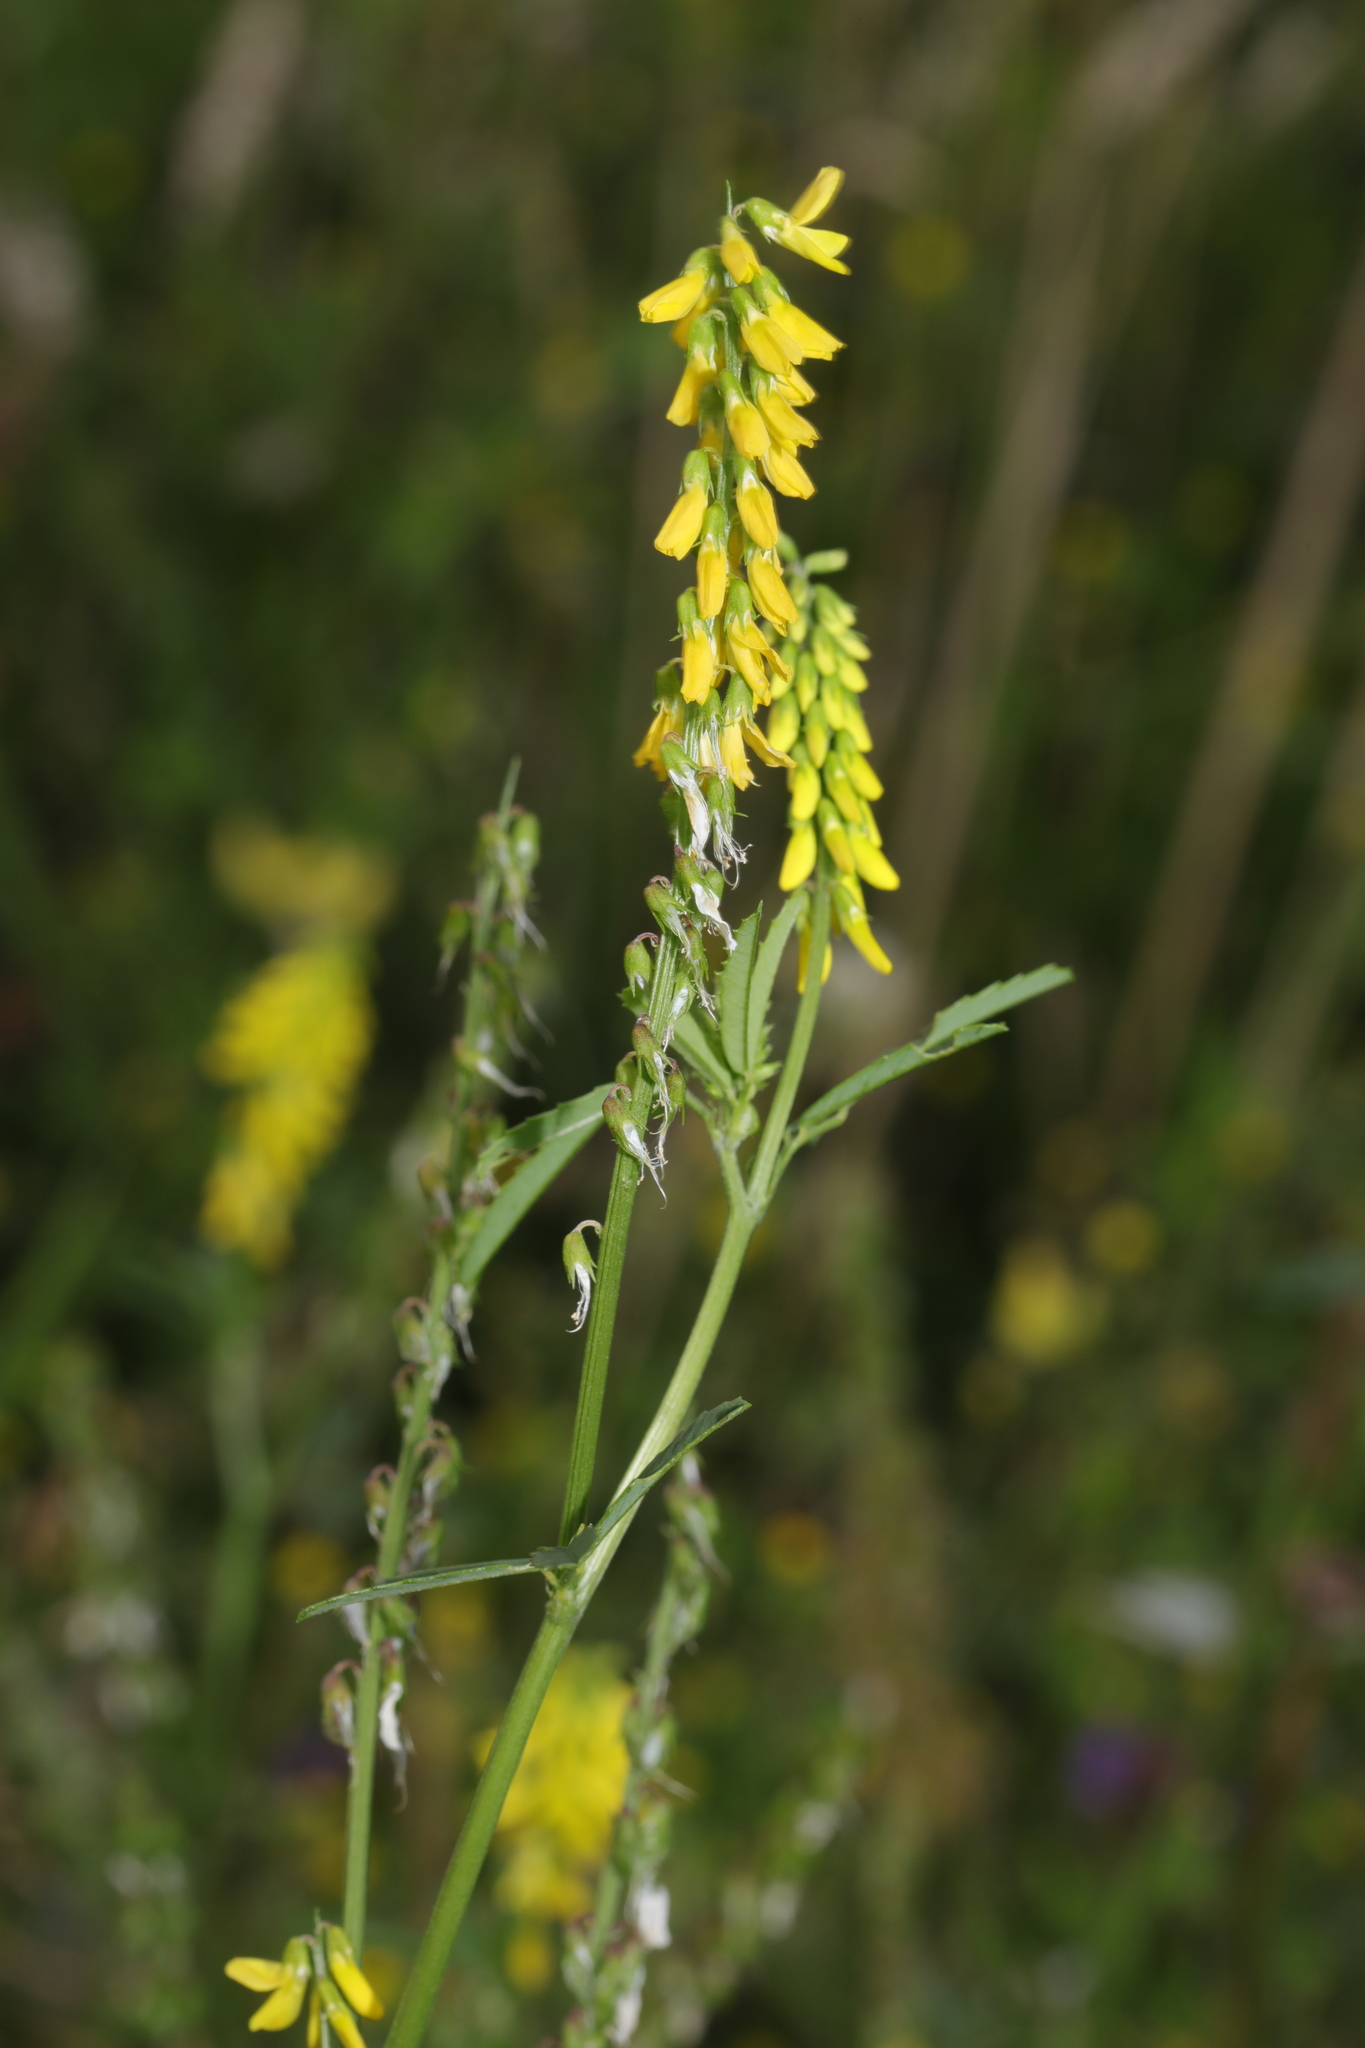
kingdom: Plantae
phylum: Tracheophyta
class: Magnoliopsida
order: Fabales
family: Fabaceae
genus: Melilotus
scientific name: Melilotus officinalis
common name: Sweetclover
